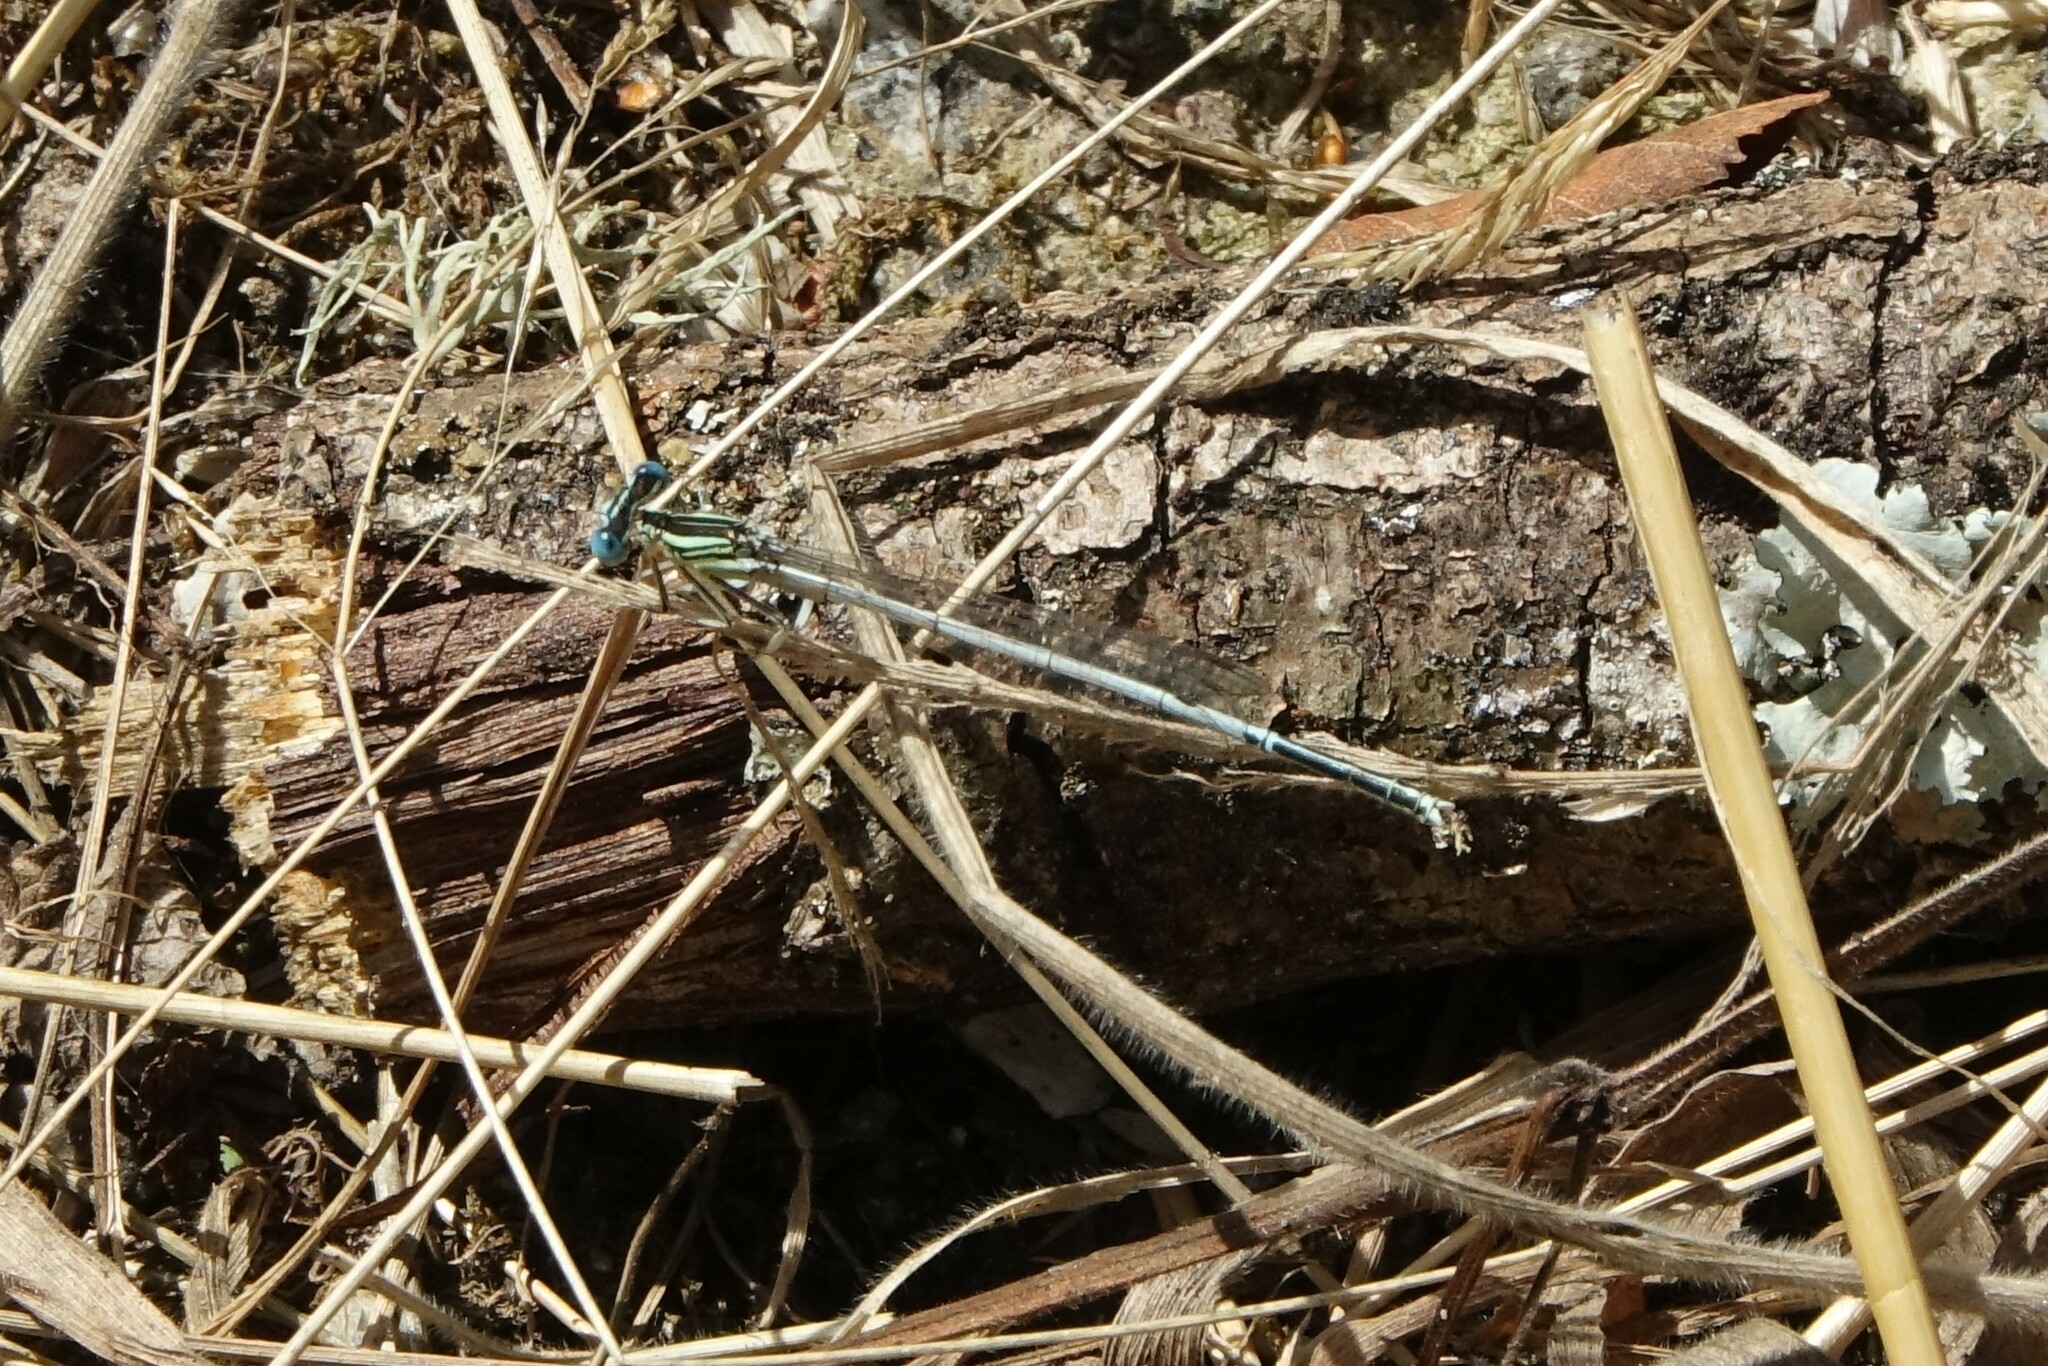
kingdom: Animalia
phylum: Arthropoda
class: Insecta
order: Odonata
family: Platycnemididae
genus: Platycnemis
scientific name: Platycnemis latipes
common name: White featherleg
